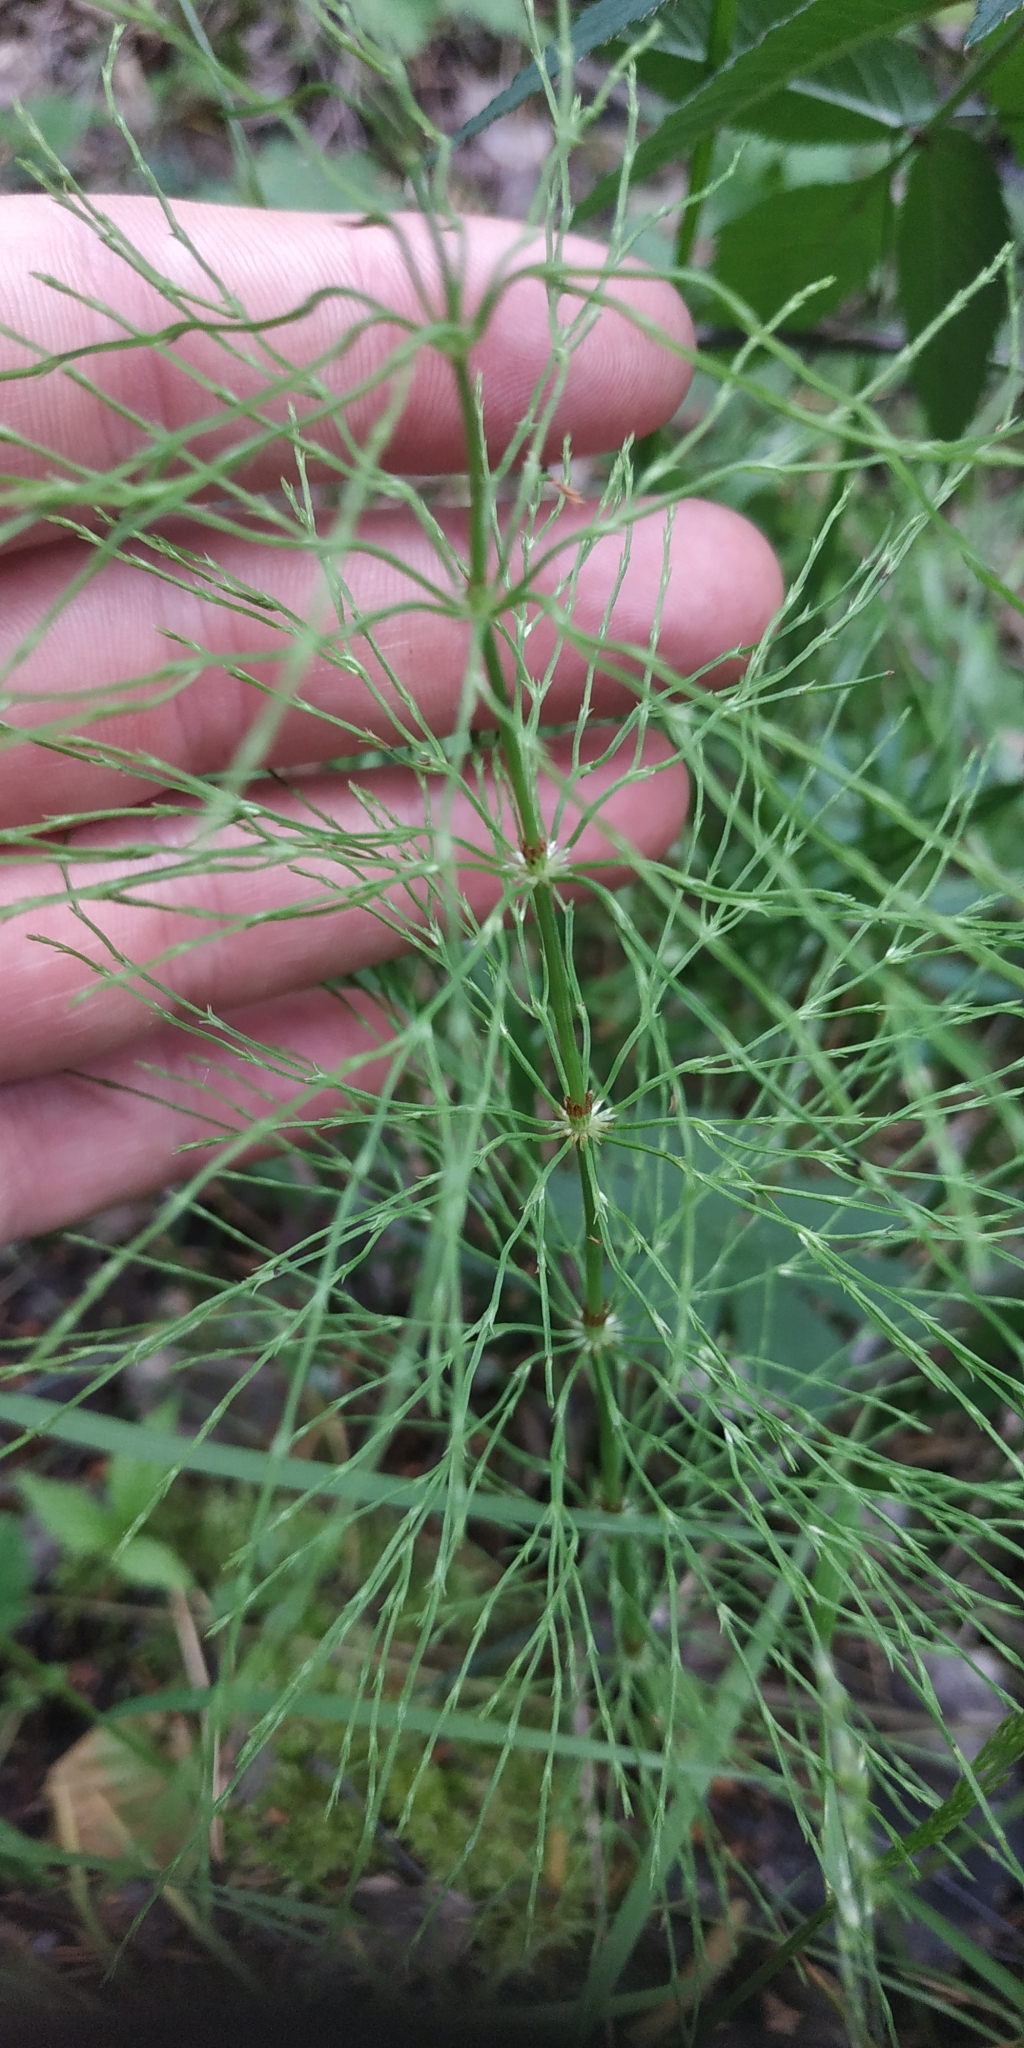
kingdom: Plantae
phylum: Tracheophyta
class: Polypodiopsida
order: Equisetales
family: Equisetaceae
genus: Equisetum
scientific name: Equisetum sylvaticum
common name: Wood horsetail
